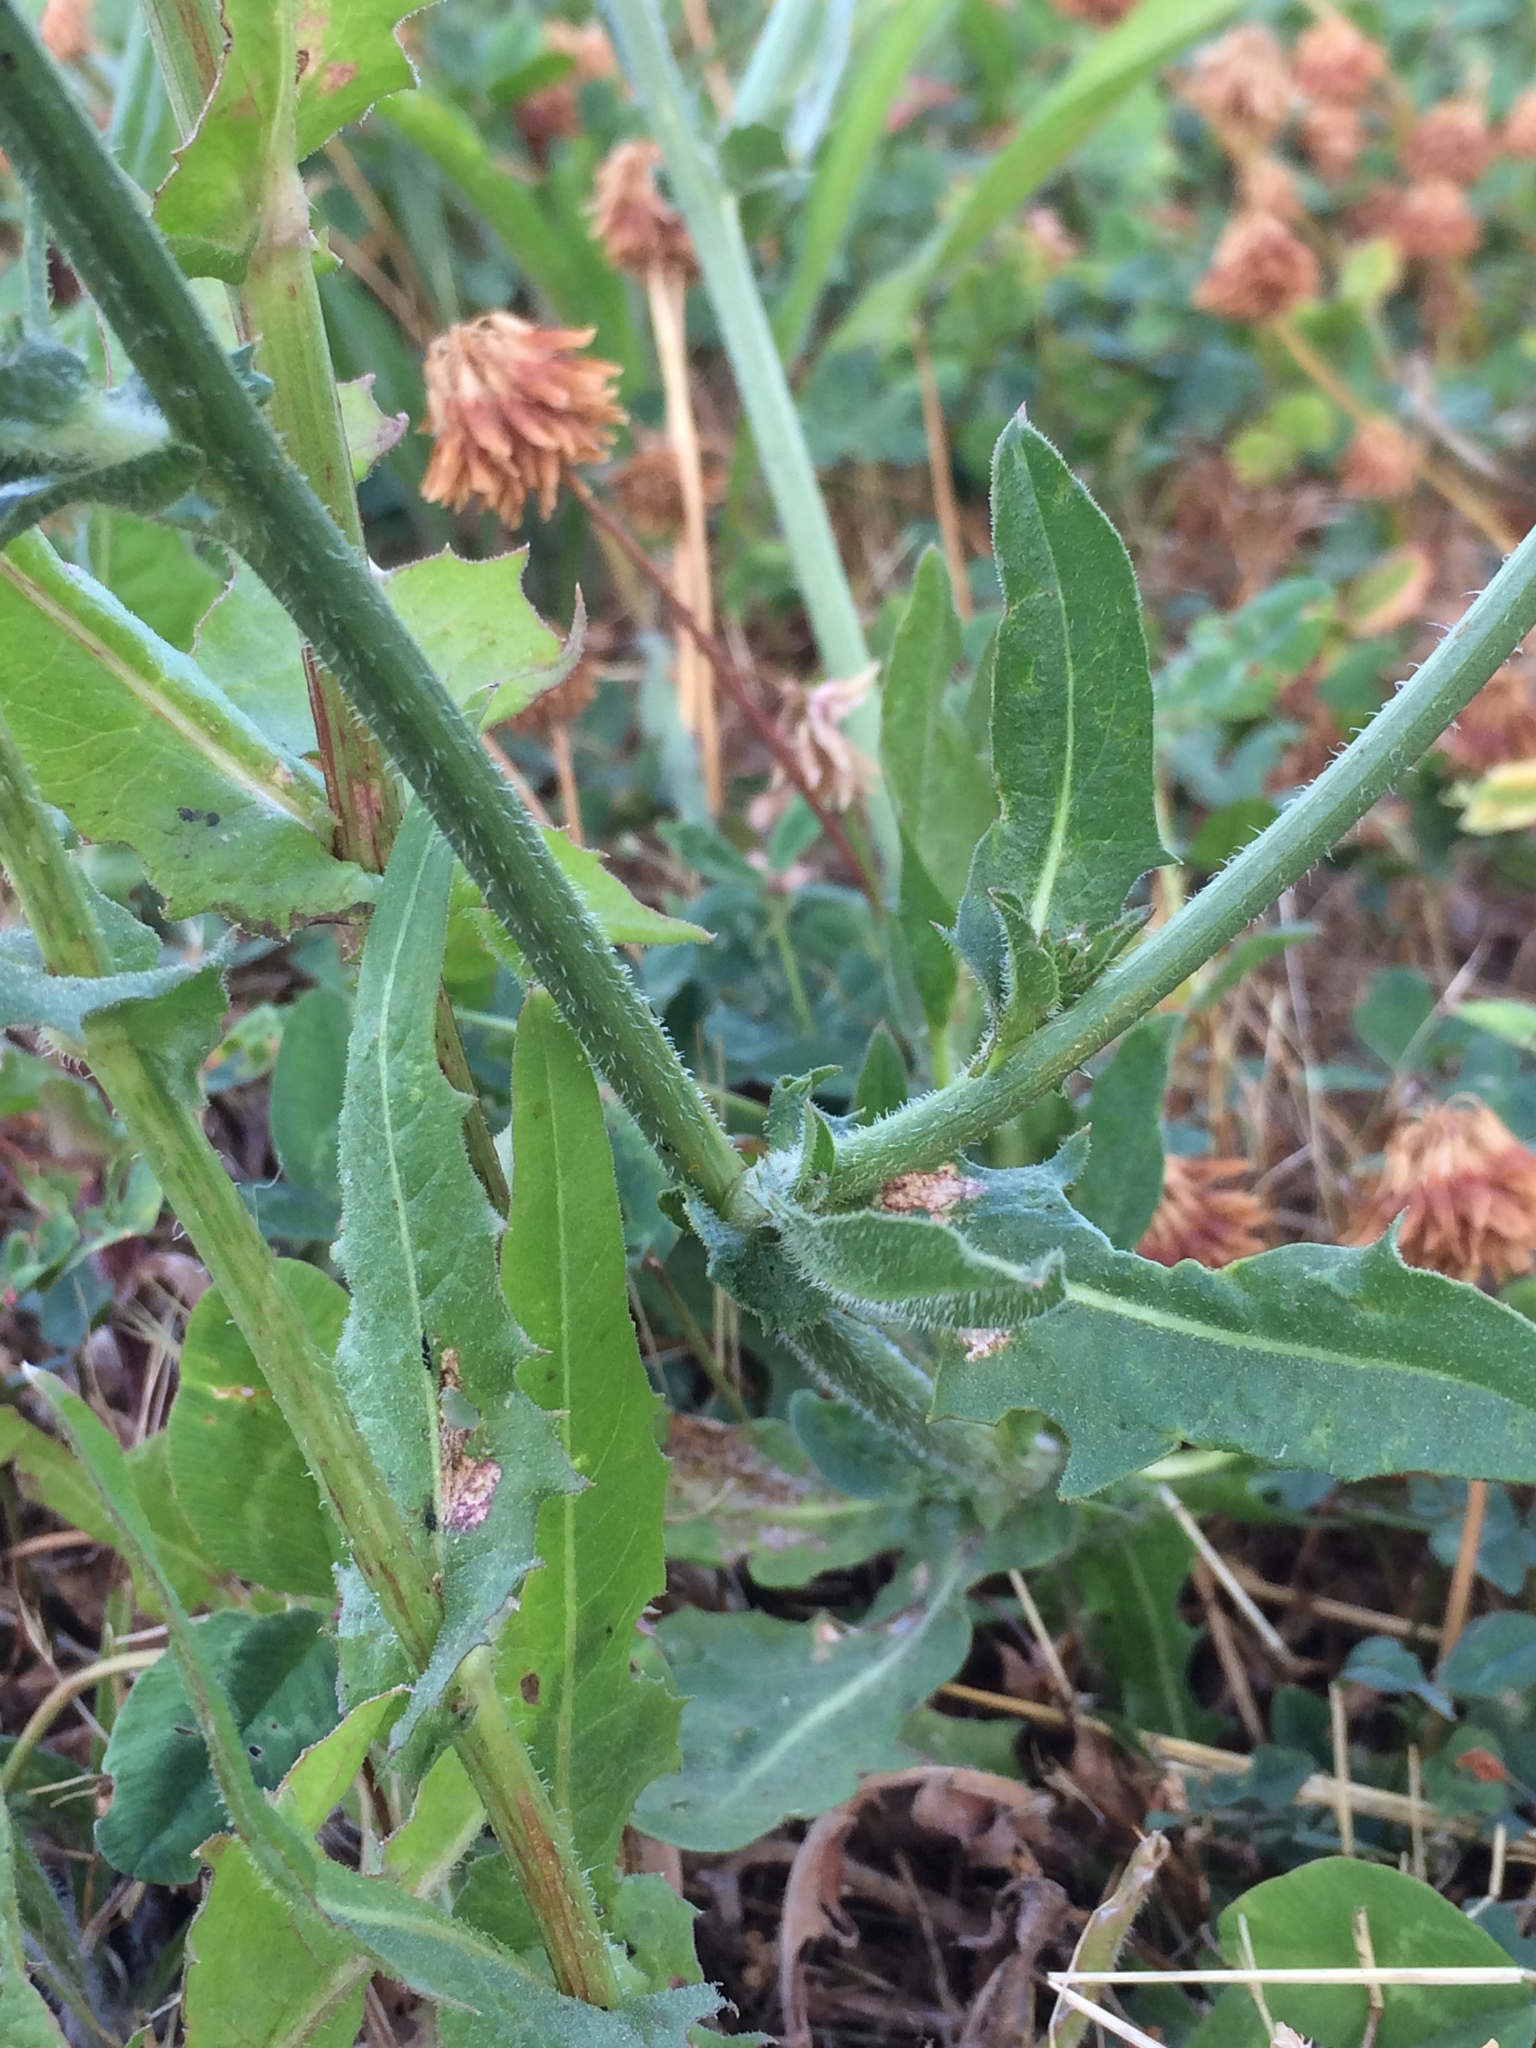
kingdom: Plantae
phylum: Tracheophyta
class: Magnoliopsida
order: Asterales
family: Asteraceae
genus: Cichorium
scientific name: Cichorium intybus
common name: Chicory
